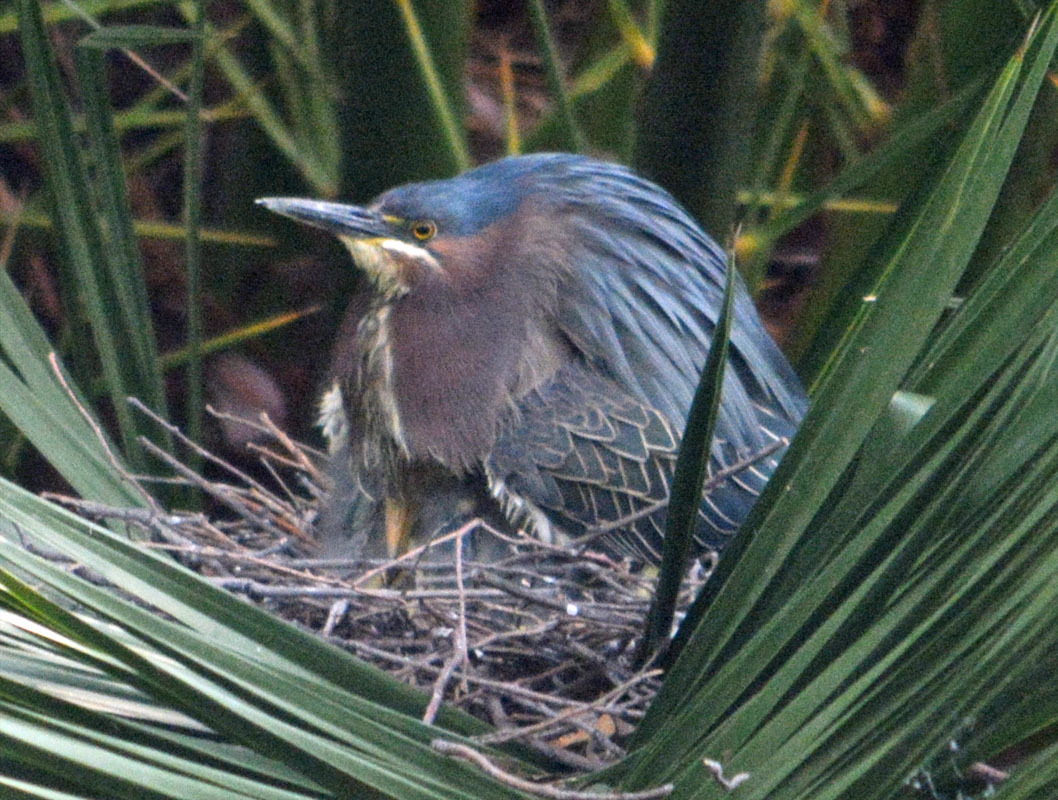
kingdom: Animalia
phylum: Chordata
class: Aves
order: Pelecaniformes
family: Ardeidae
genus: Butorides
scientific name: Butorides virescens
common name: Green heron
